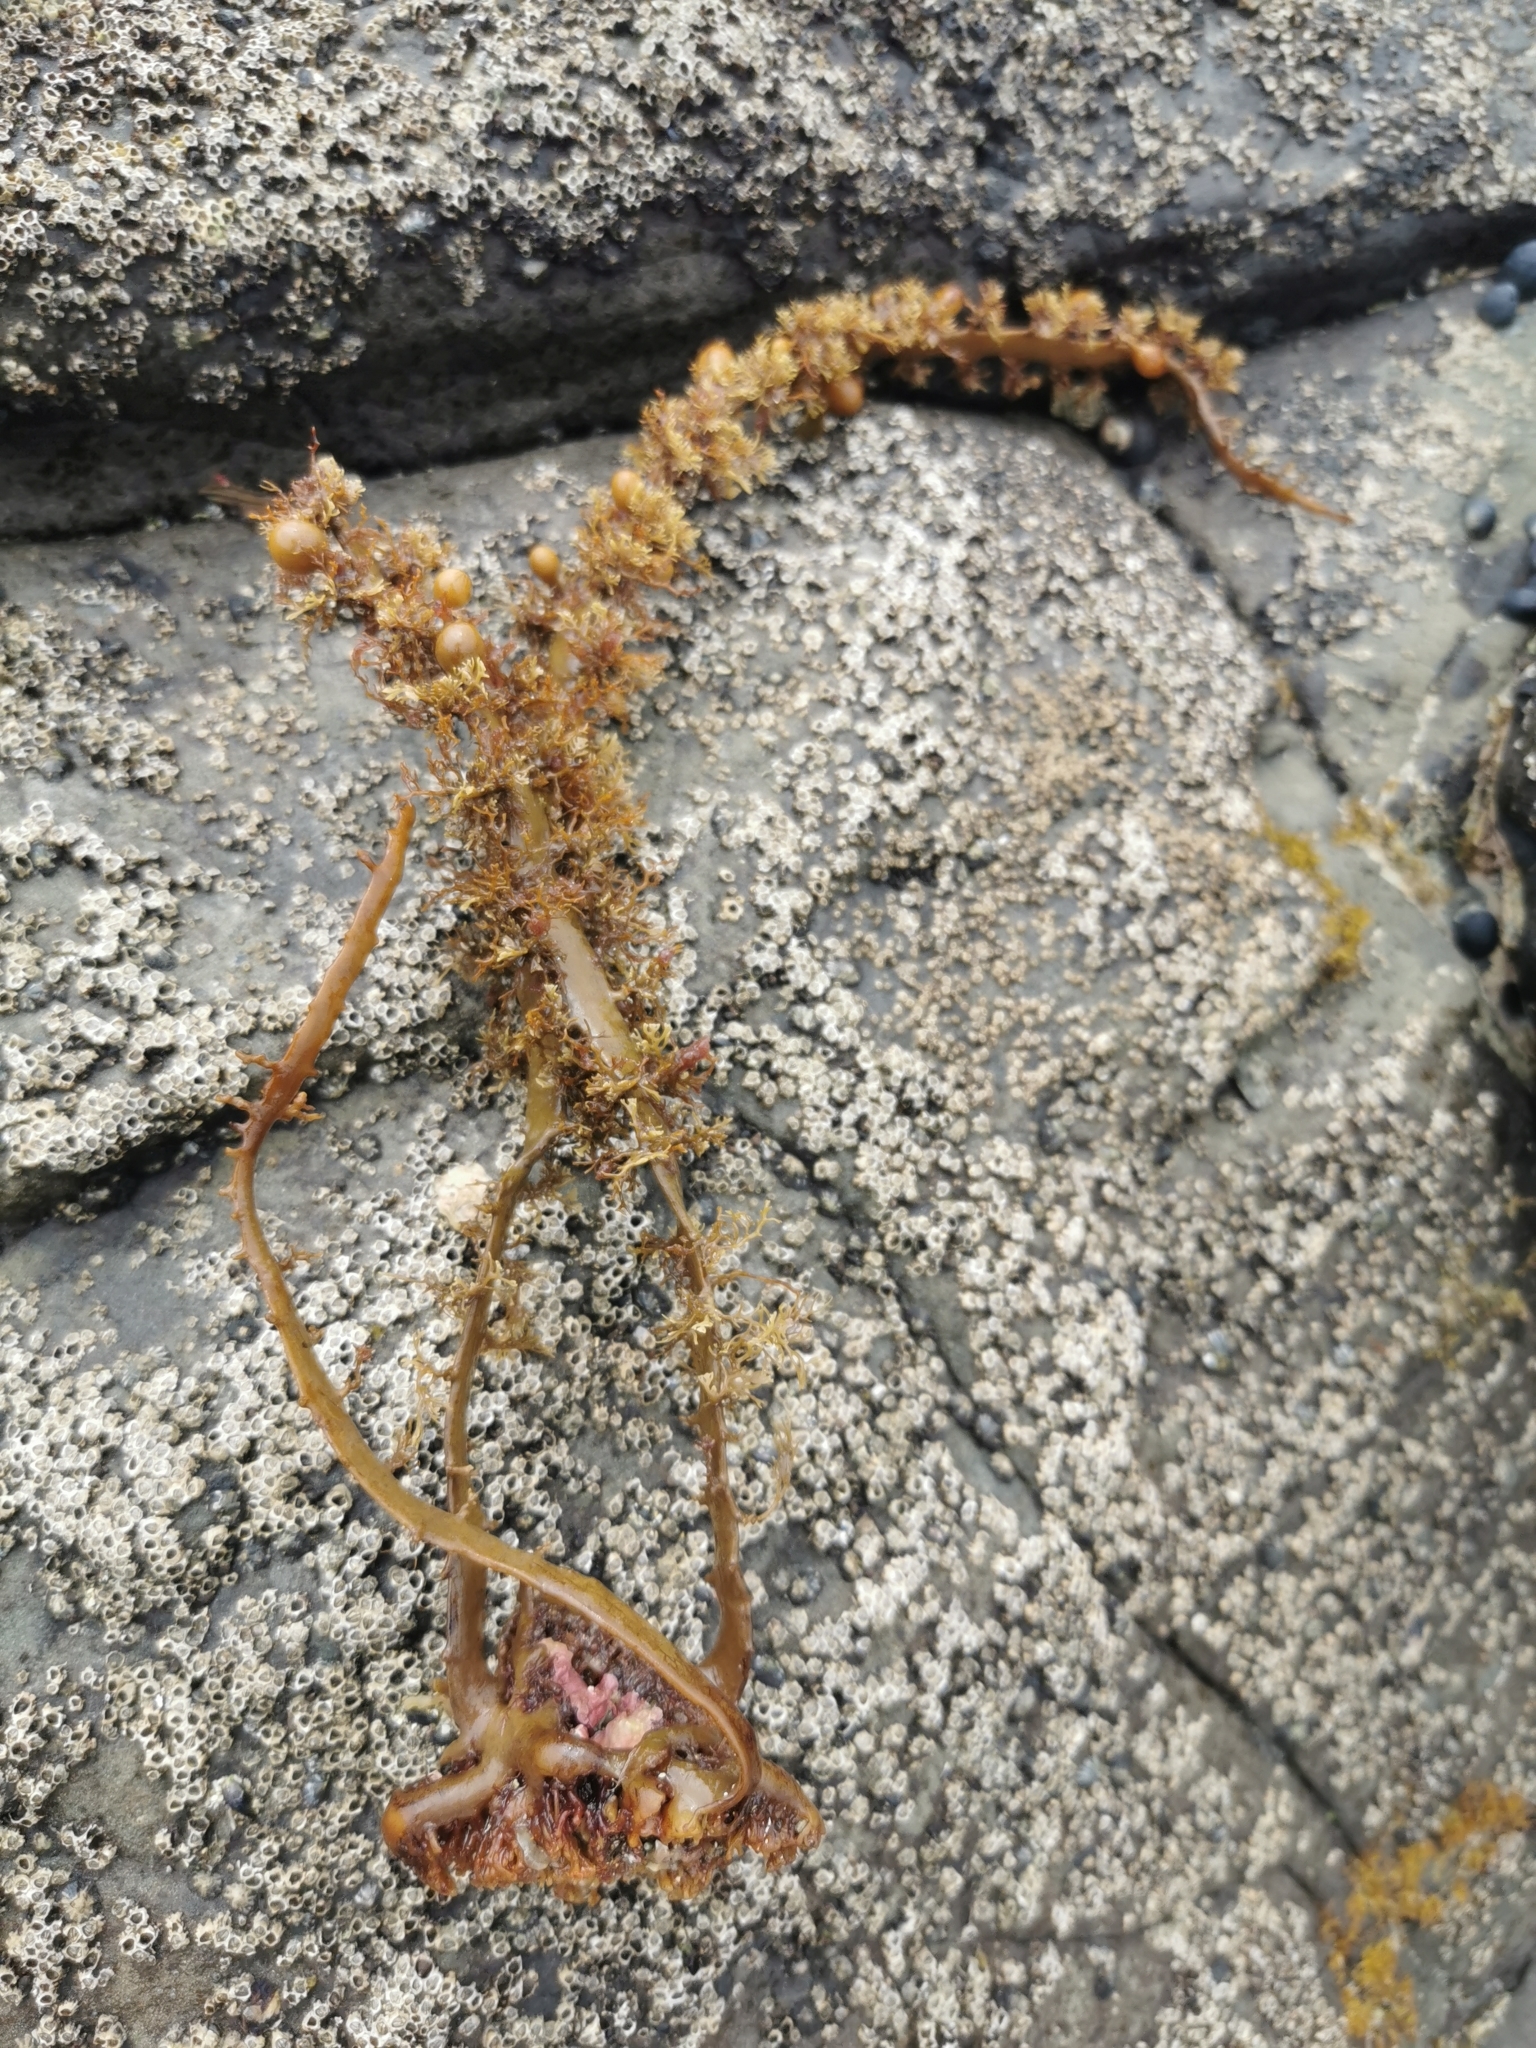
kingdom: Chromista
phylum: Ochrophyta
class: Phaeophyceae
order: Fucales
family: Sargassaceae
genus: Carpophyllum
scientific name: Carpophyllum plumosum
